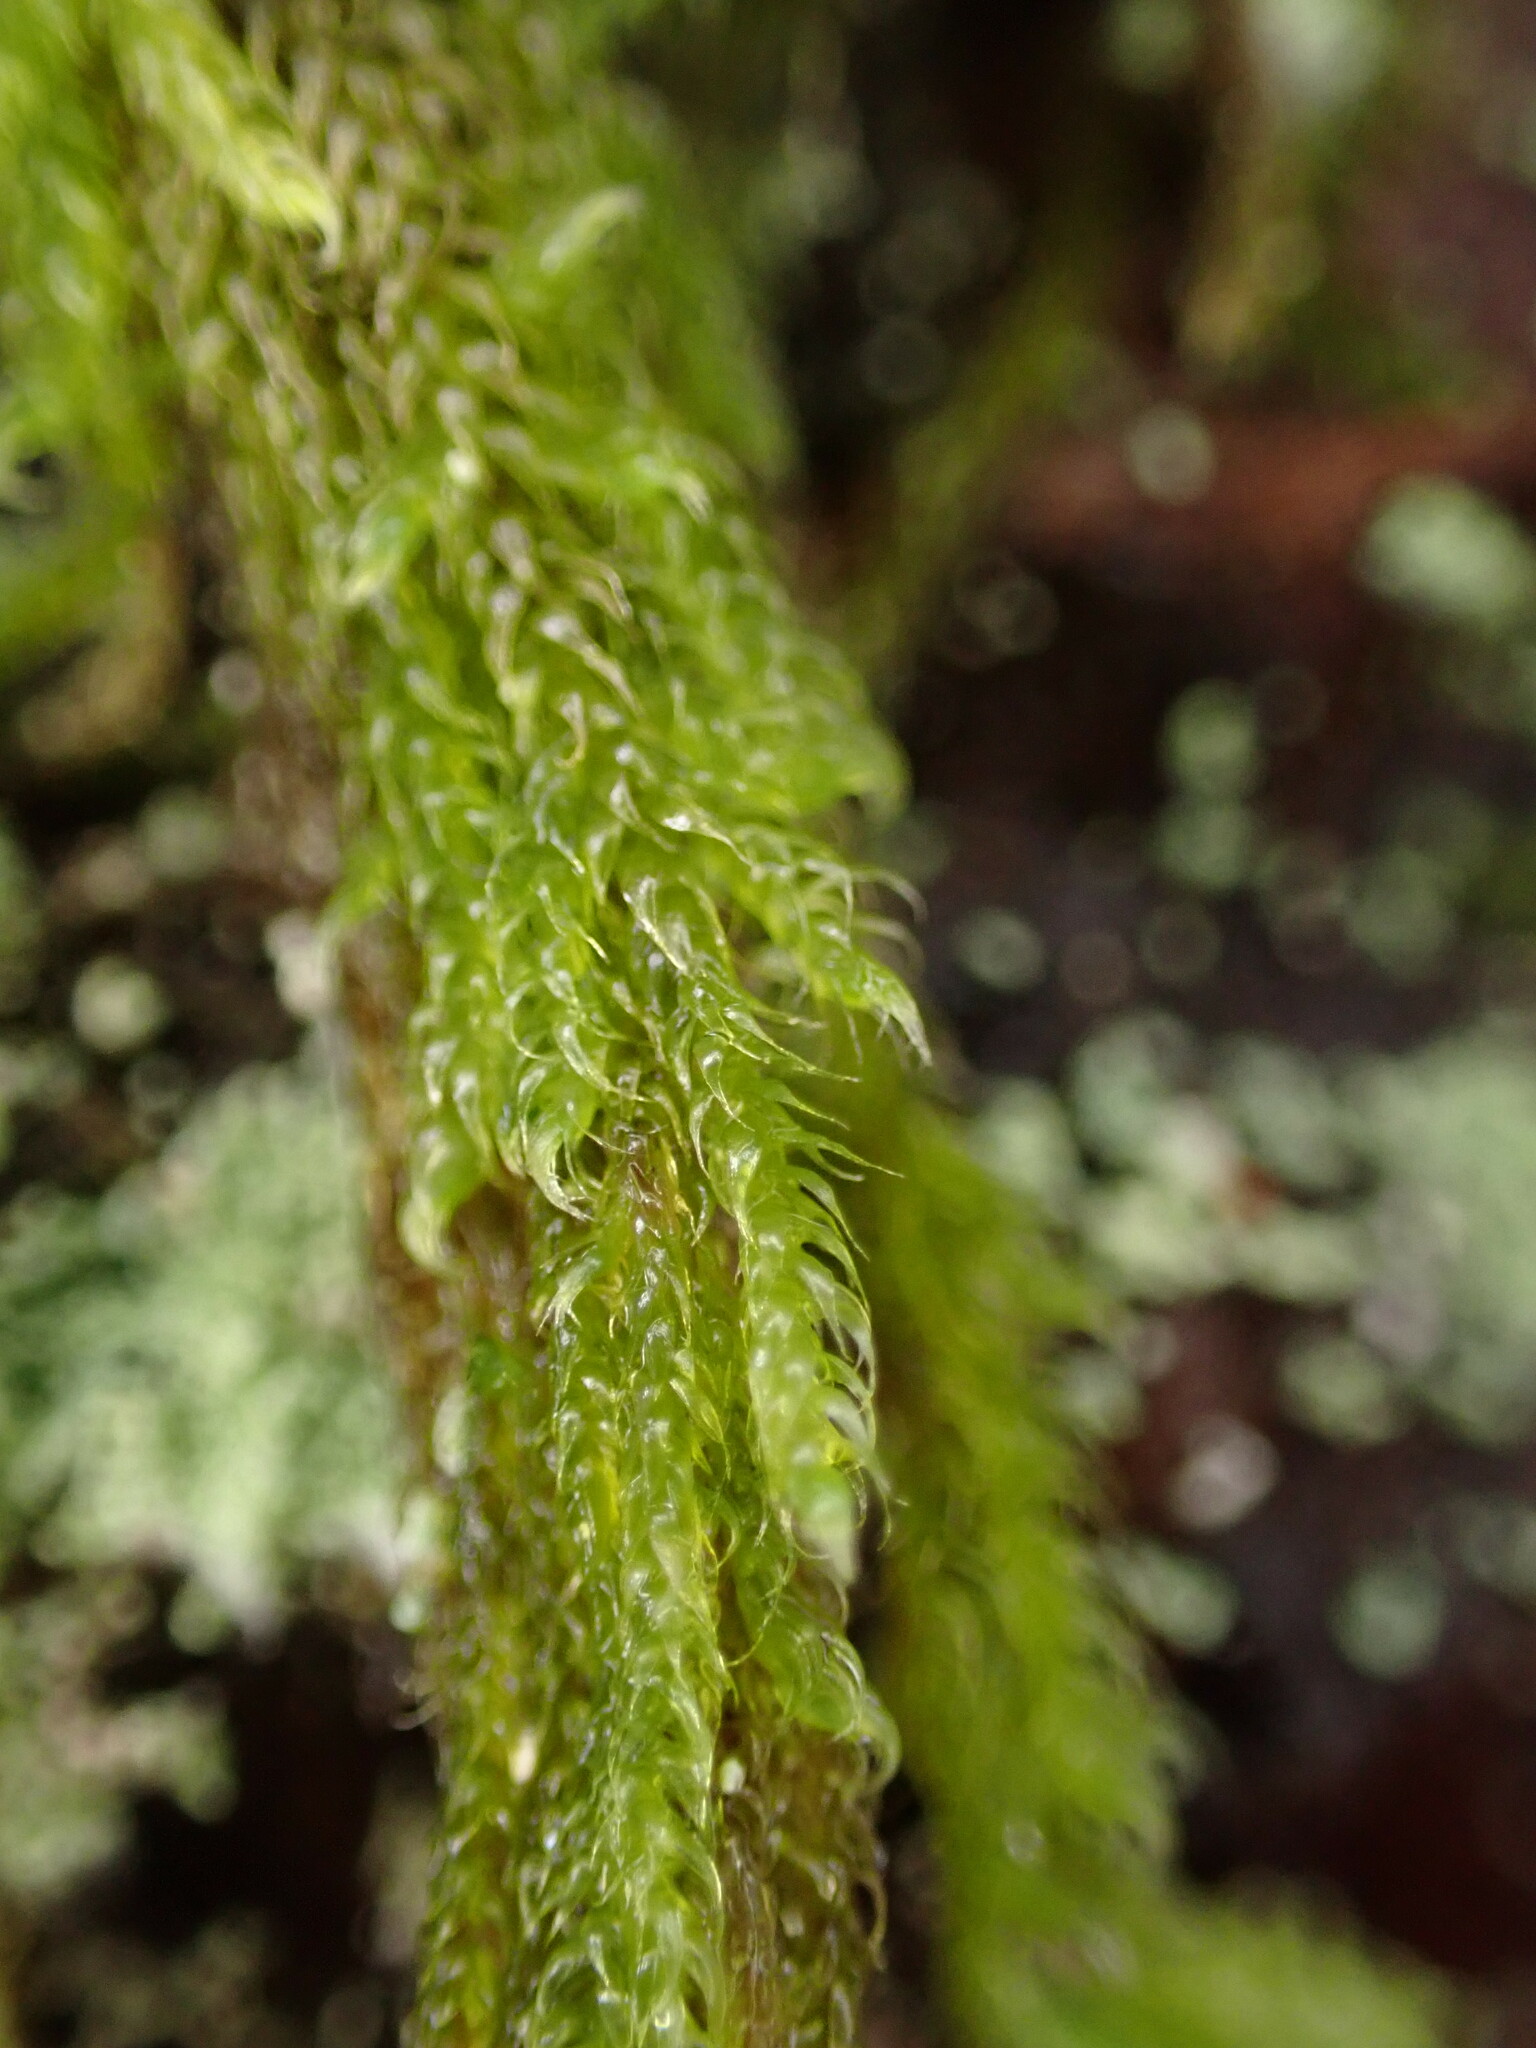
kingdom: Plantae
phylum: Bryophyta
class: Bryopsida
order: Hypnales
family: Pylaisiadelphaceae
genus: Trochophyllohypnum
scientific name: Trochophyllohypnum circinale
